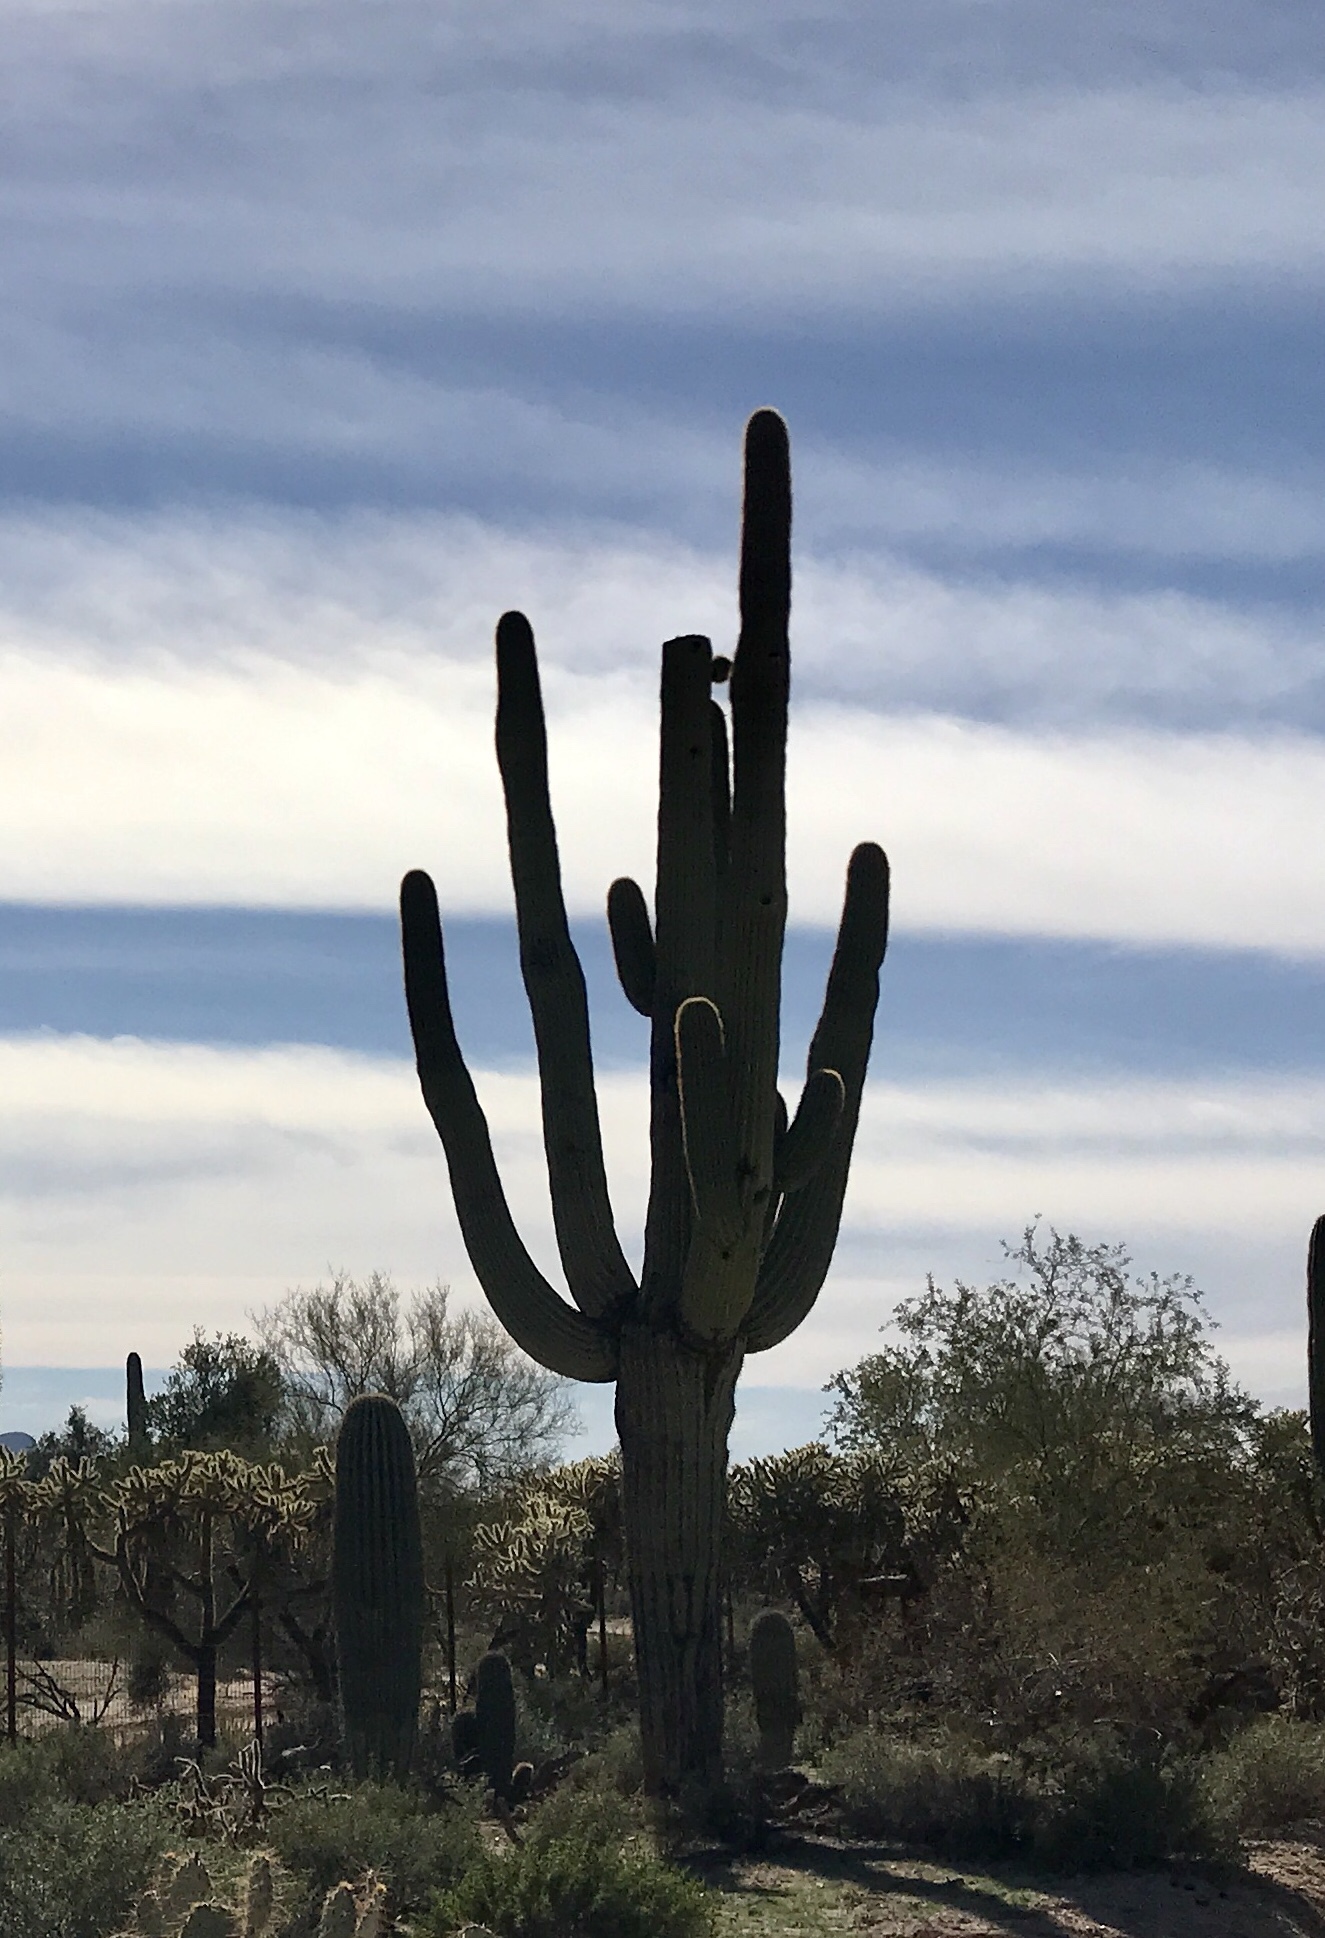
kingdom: Plantae
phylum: Tracheophyta
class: Magnoliopsida
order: Caryophyllales
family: Cactaceae
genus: Carnegiea
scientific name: Carnegiea gigantea
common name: Saguaro
